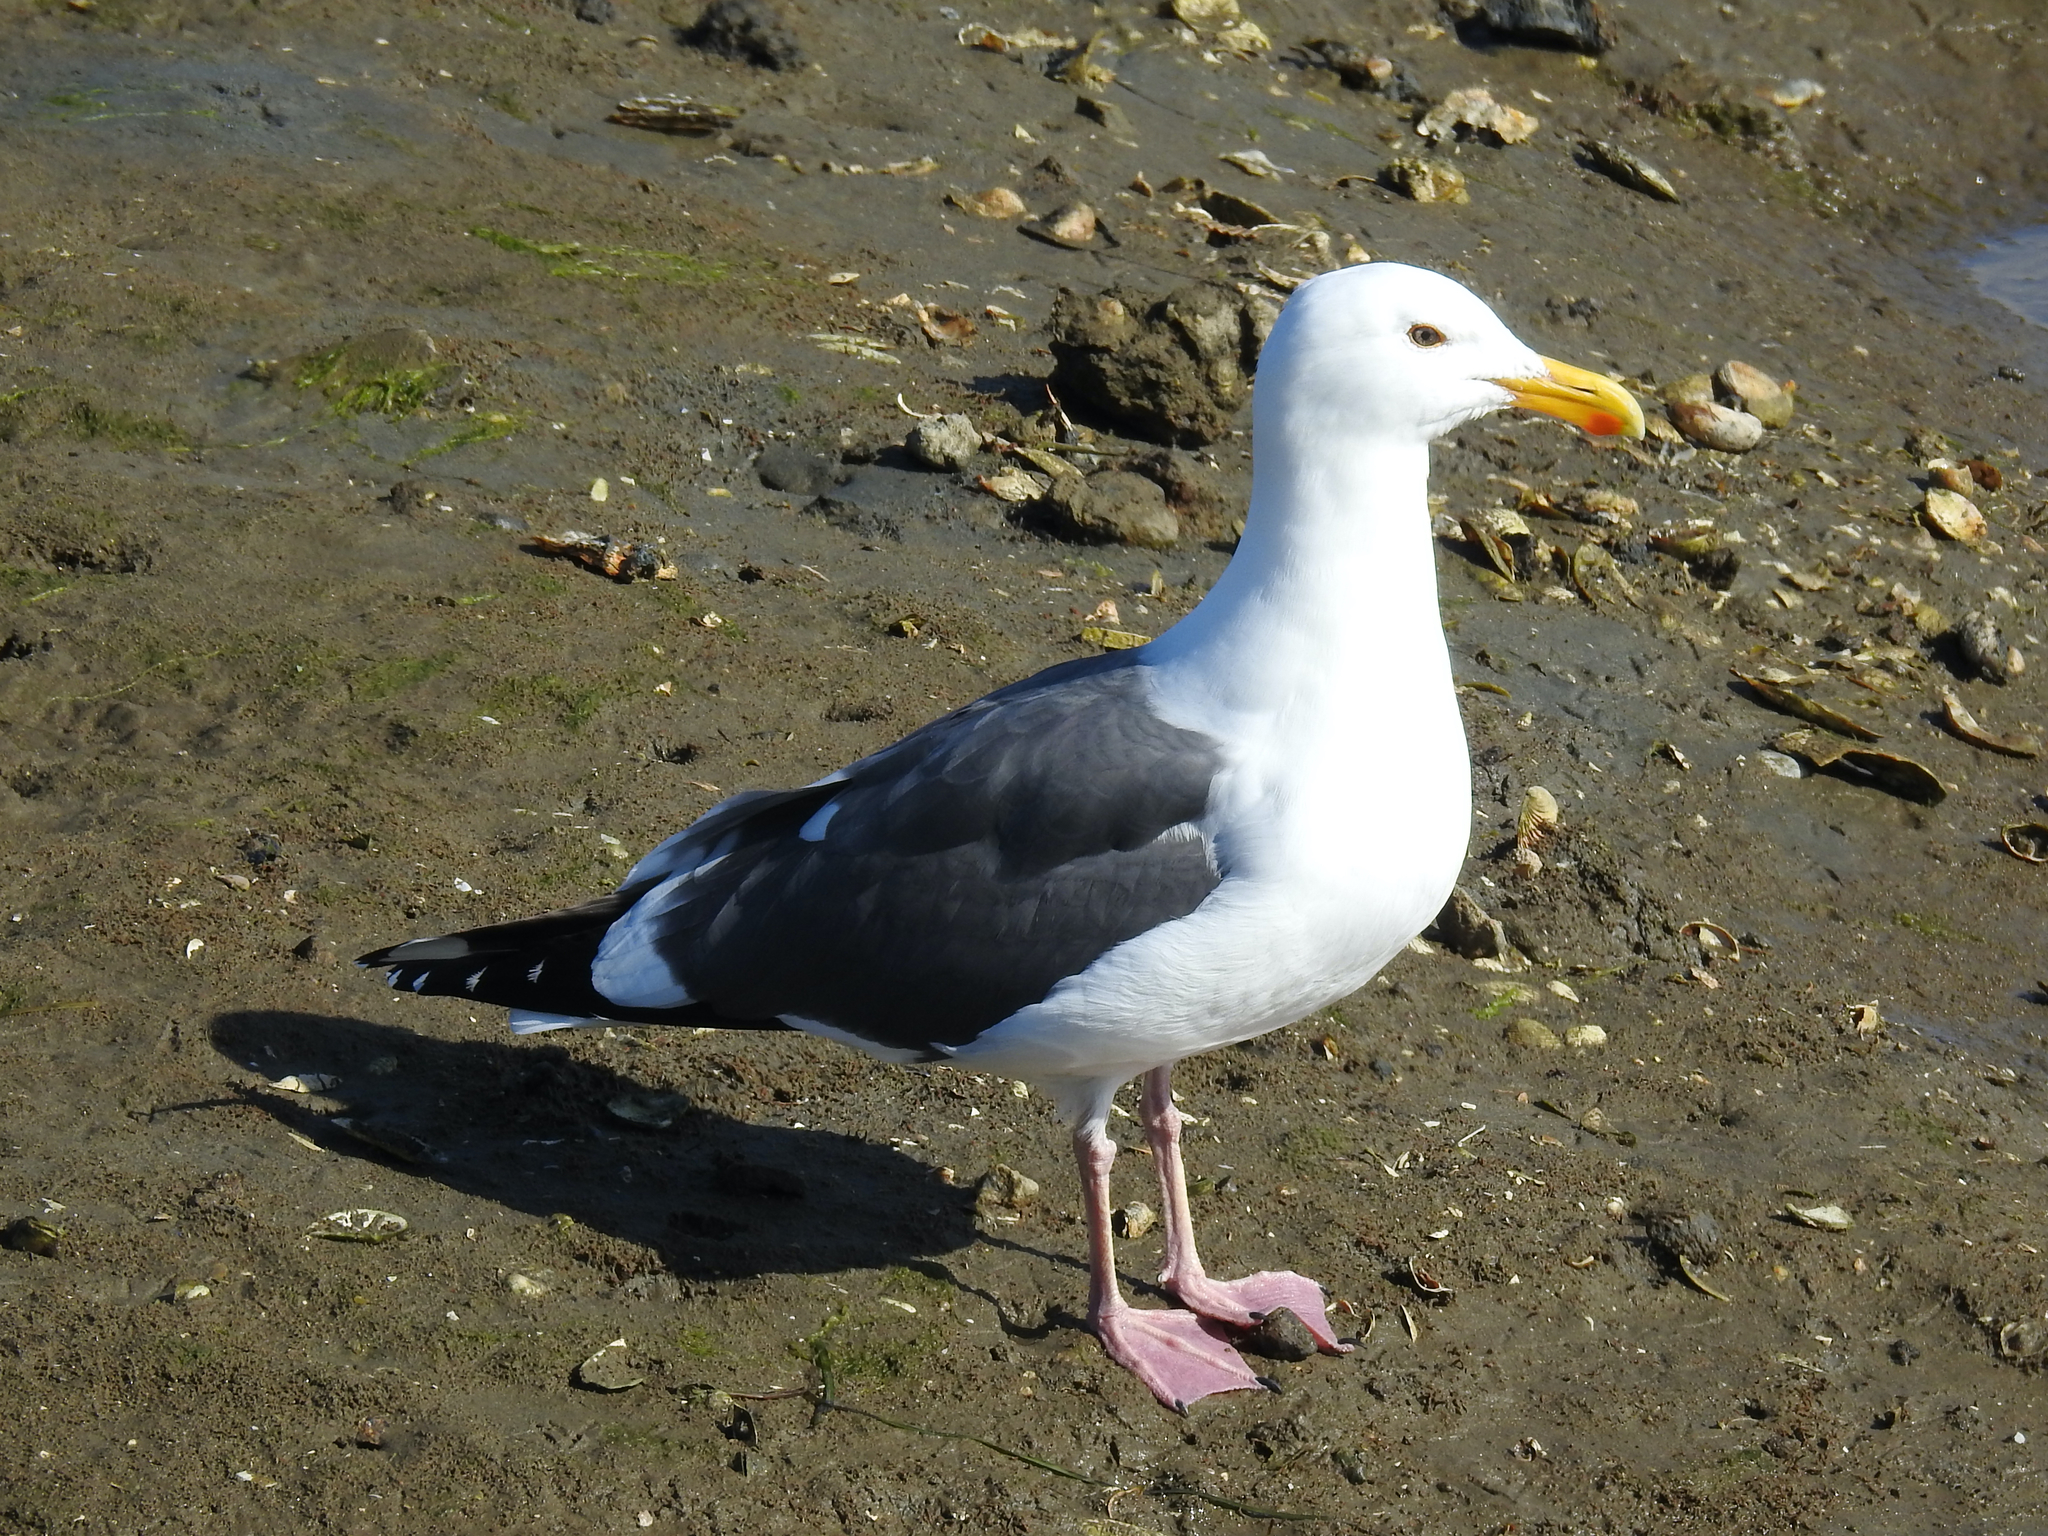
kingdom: Animalia
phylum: Chordata
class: Aves
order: Charadriiformes
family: Laridae
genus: Larus
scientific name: Larus occidentalis
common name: Western gull
